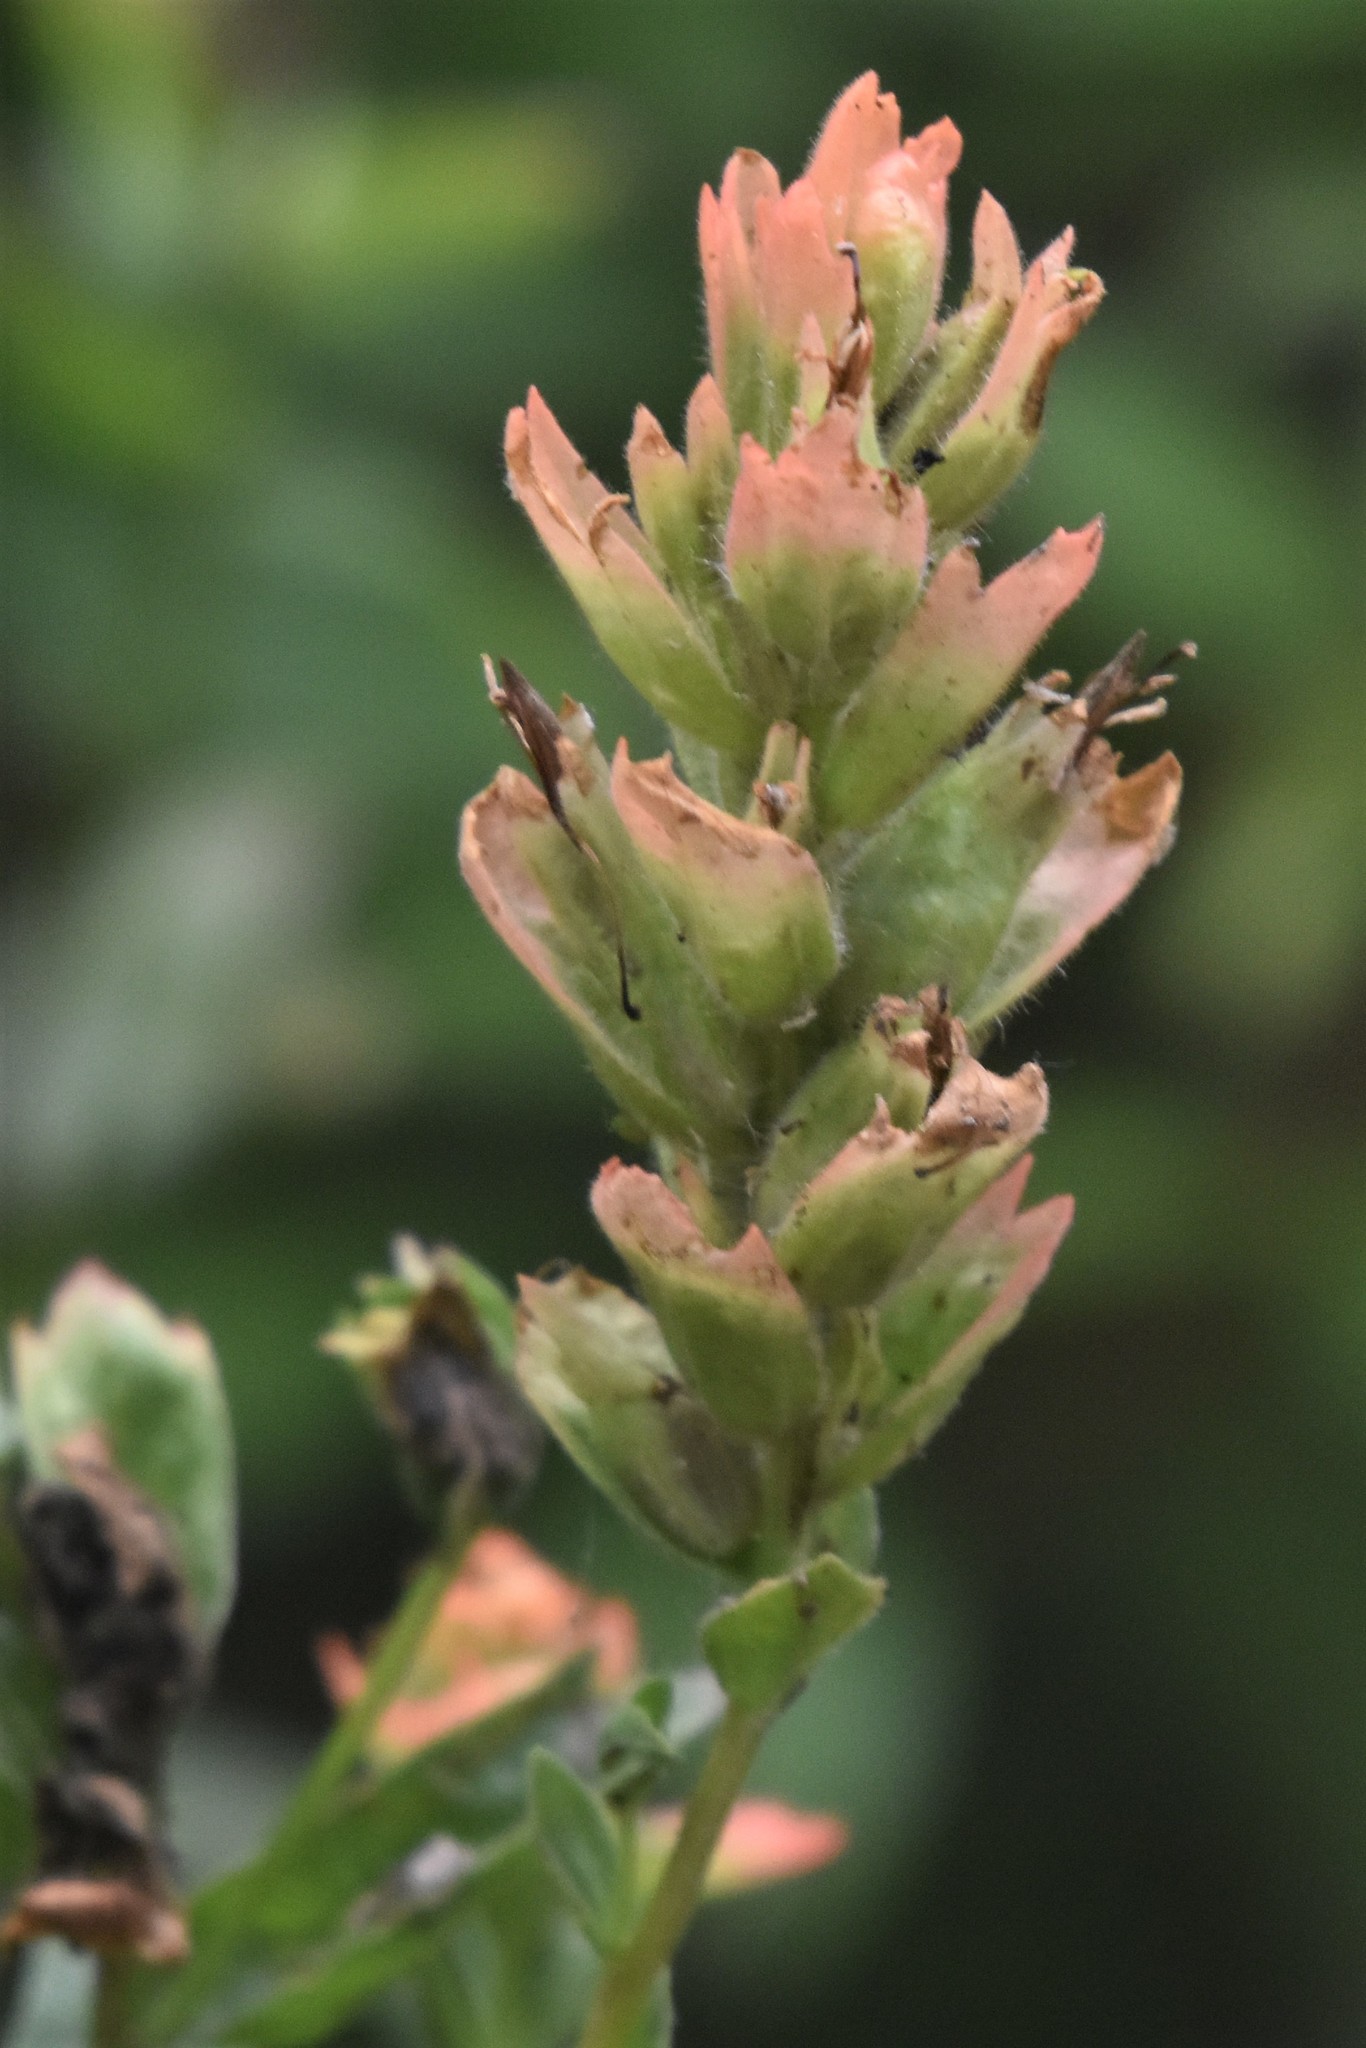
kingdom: Plantae
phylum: Tracheophyta
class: Magnoliopsida
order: Lamiales
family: Orobanchaceae
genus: Castilleja
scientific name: Castilleja miniata
